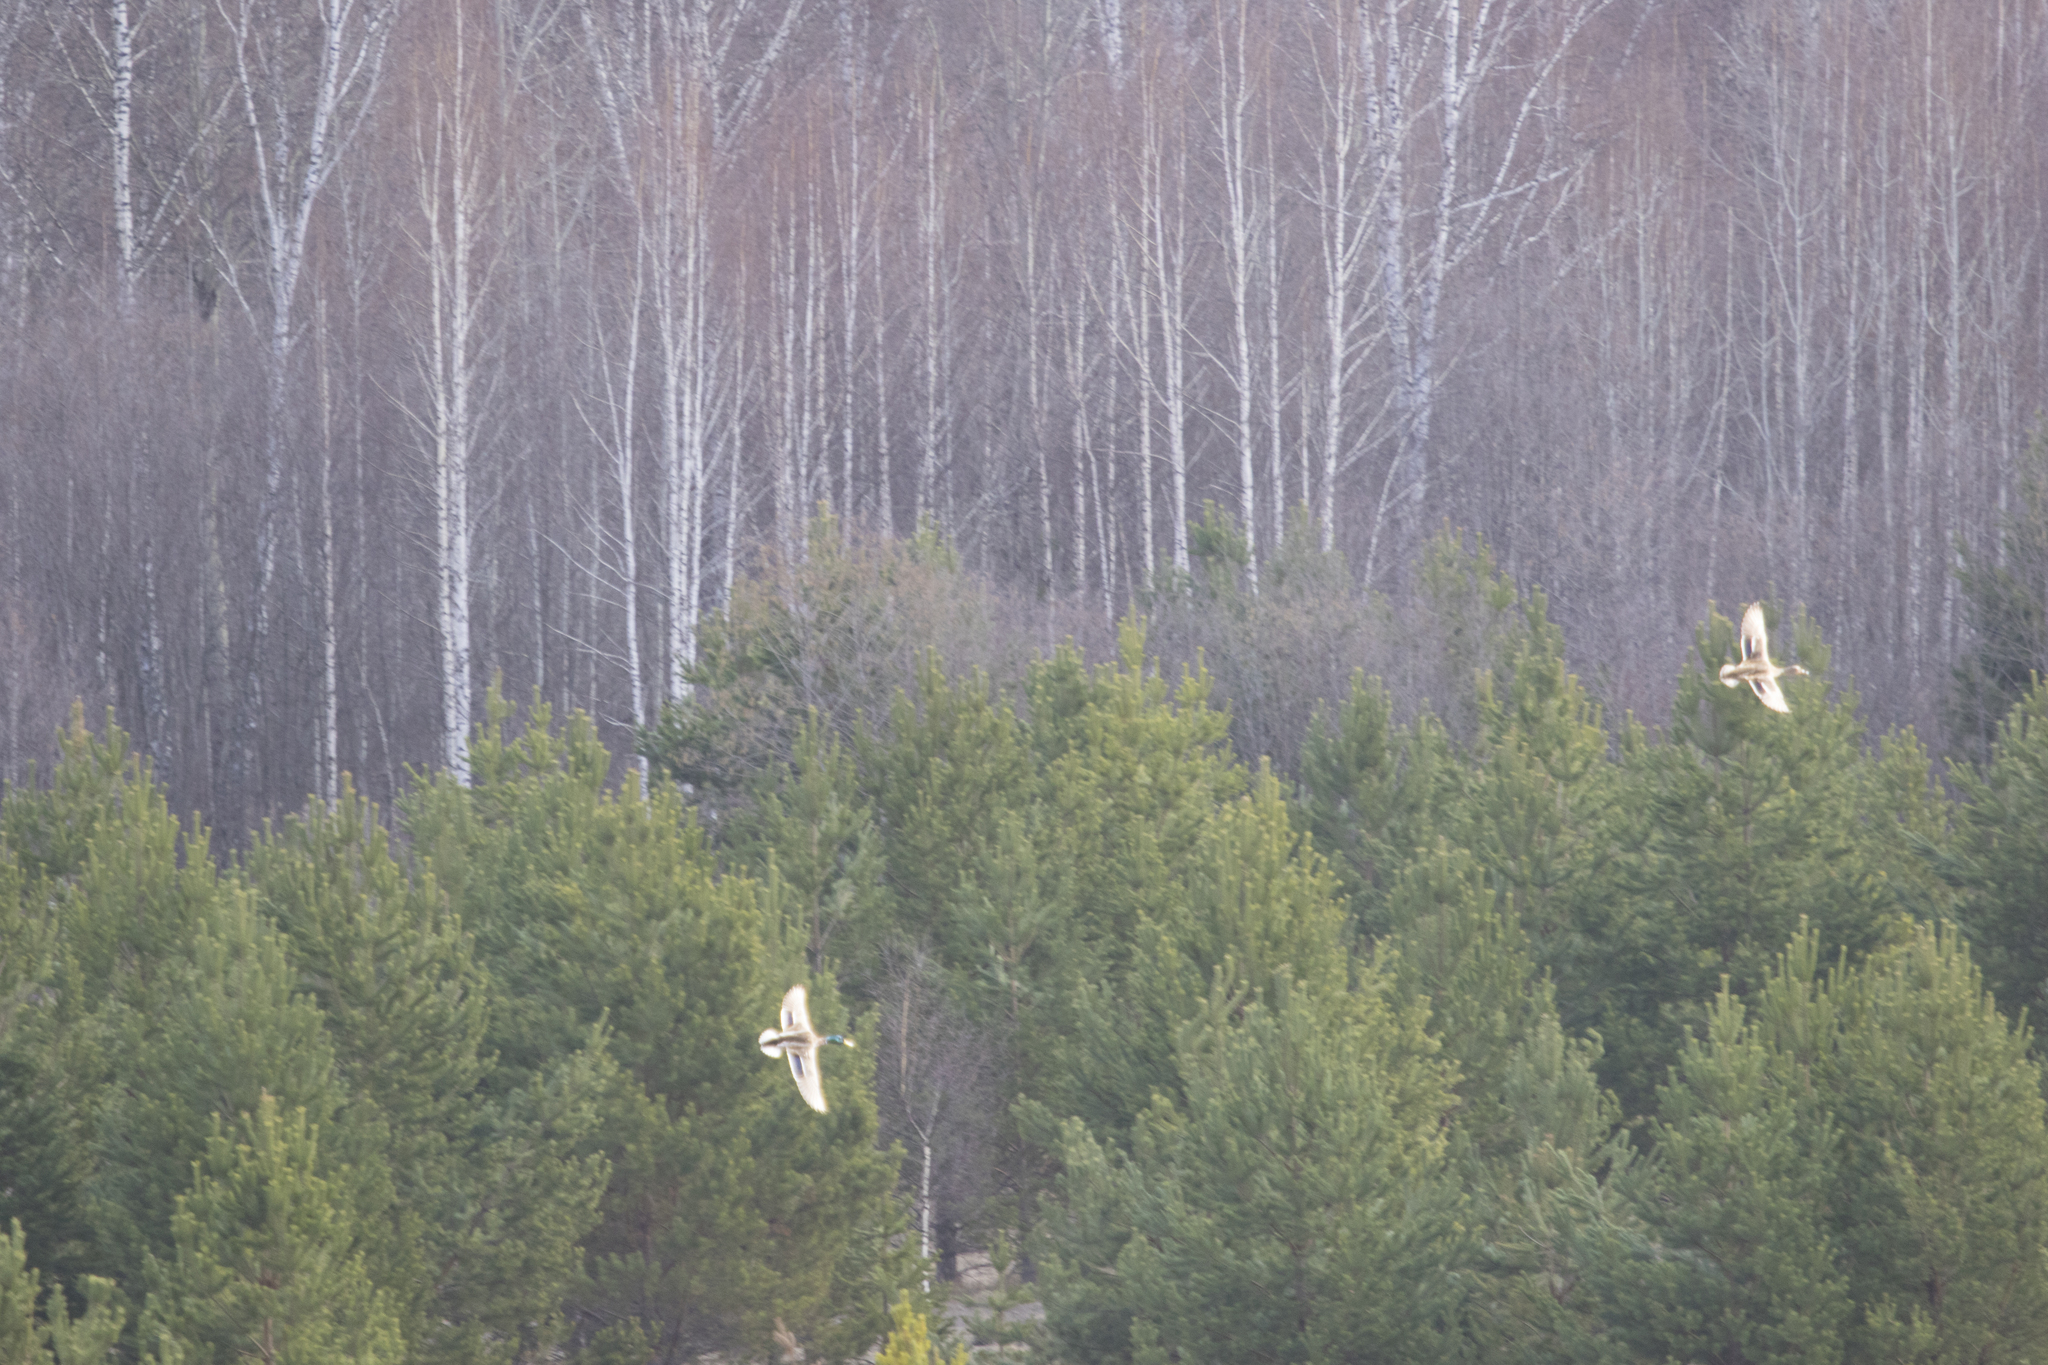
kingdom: Animalia
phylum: Chordata
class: Aves
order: Anseriformes
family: Anatidae
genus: Anas
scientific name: Anas platyrhynchos
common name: Mallard
